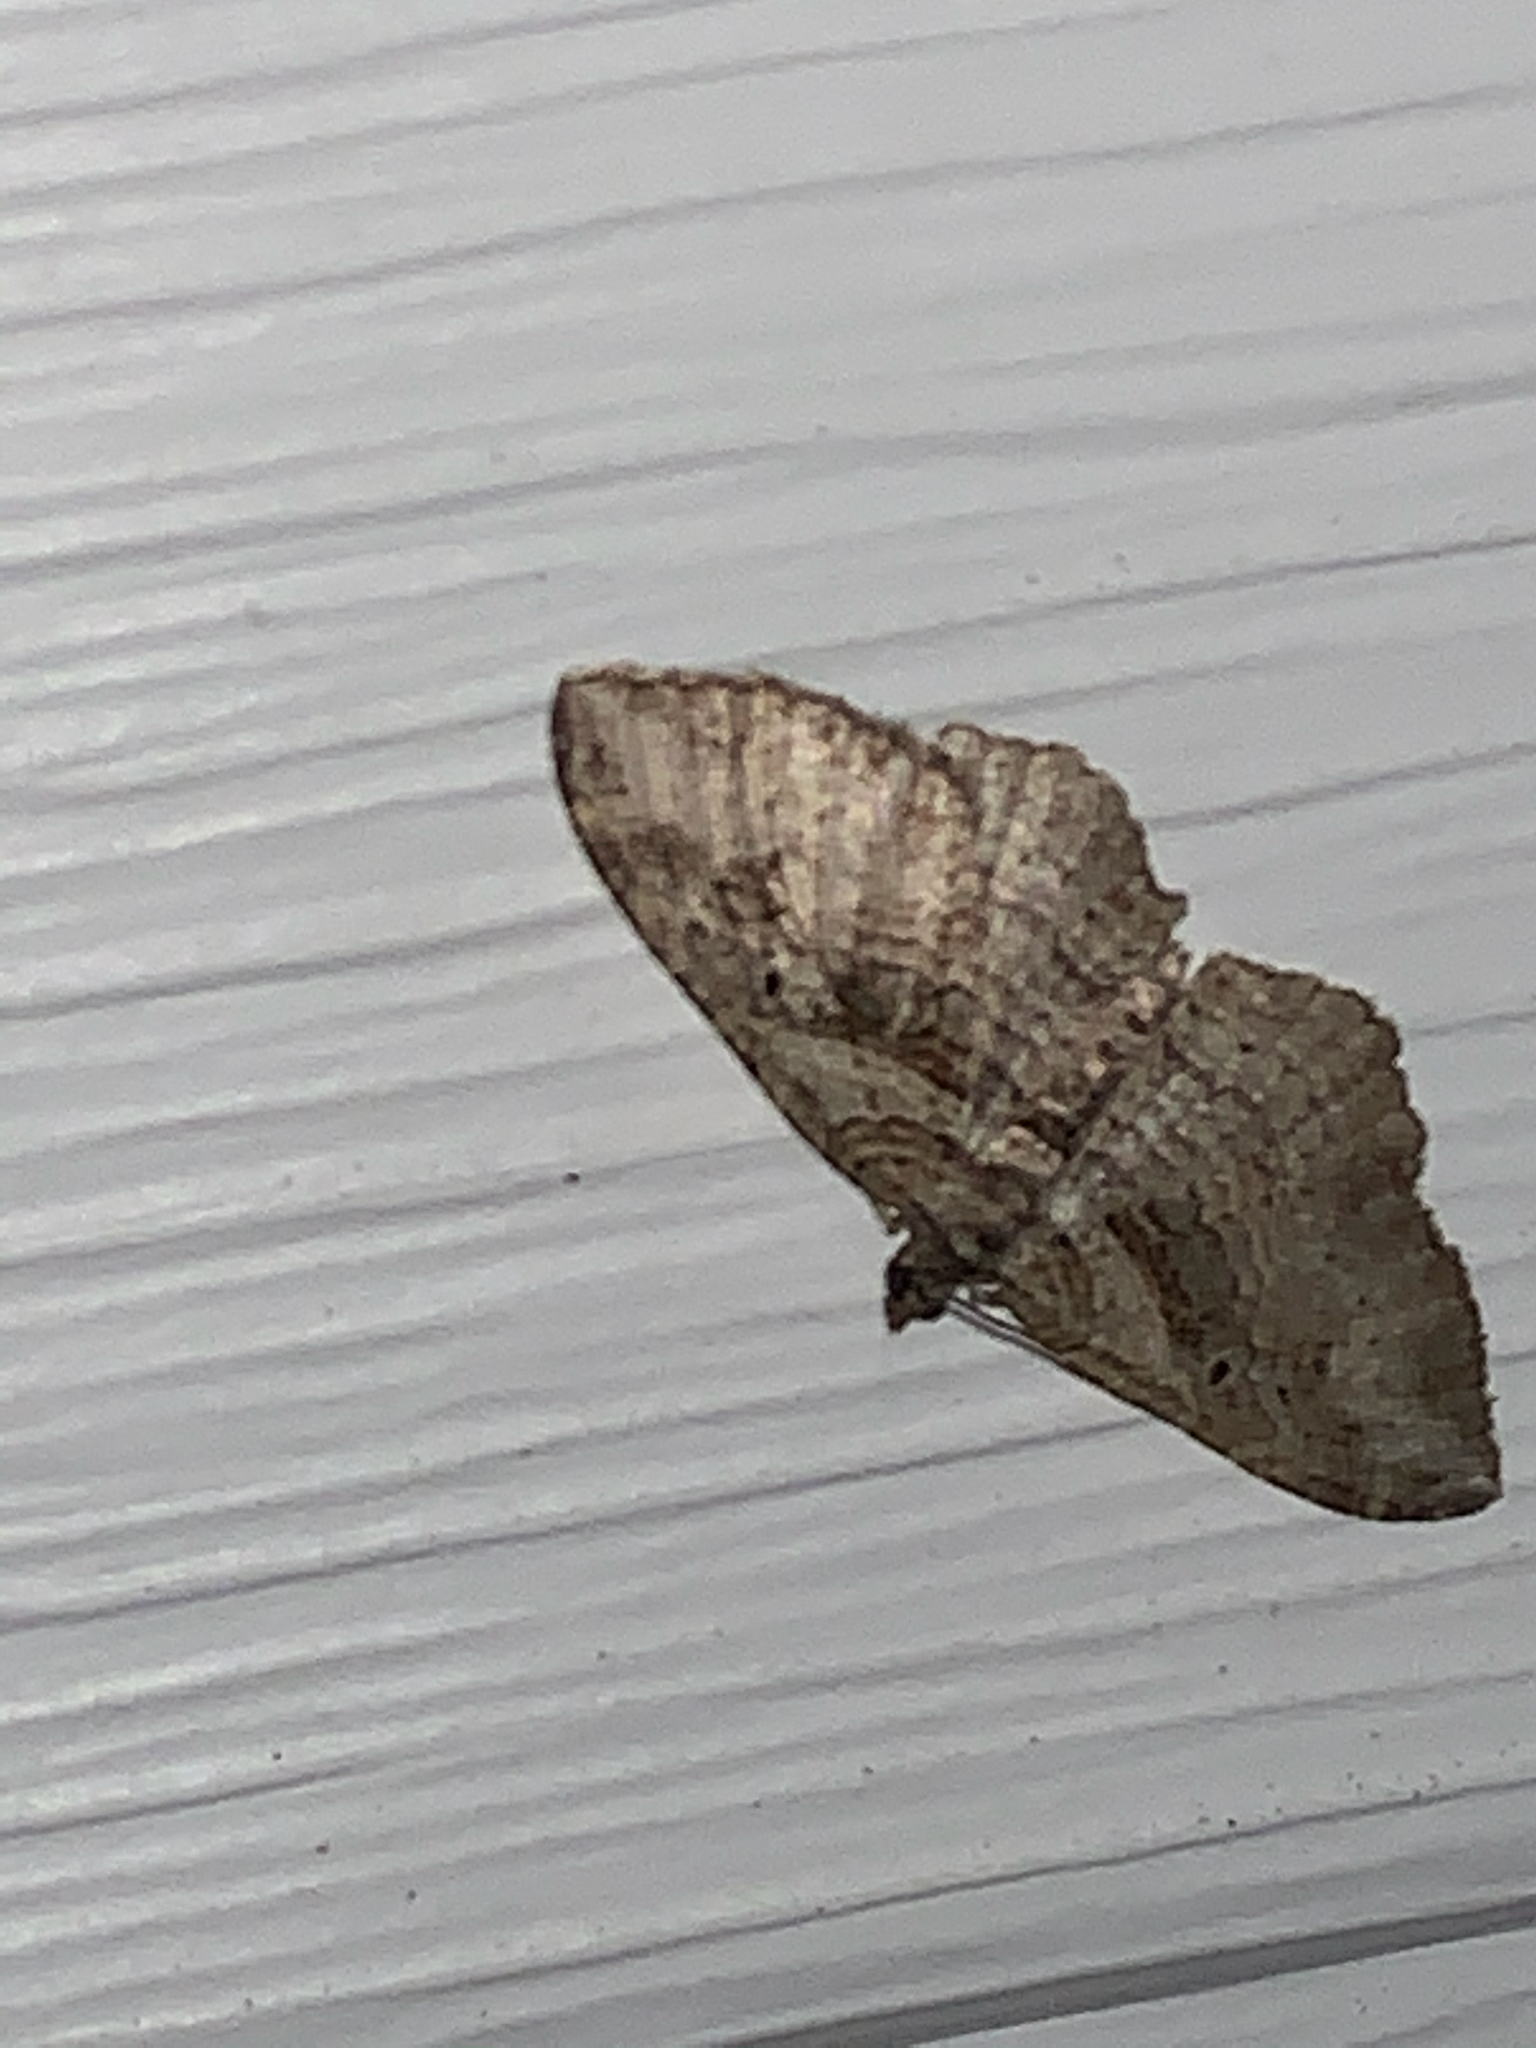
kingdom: Animalia
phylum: Arthropoda
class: Insecta
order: Lepidoptera
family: Geometridae
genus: Costaconvexa
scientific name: Costaconvexa centrostrigaria
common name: Bent-line carpet
